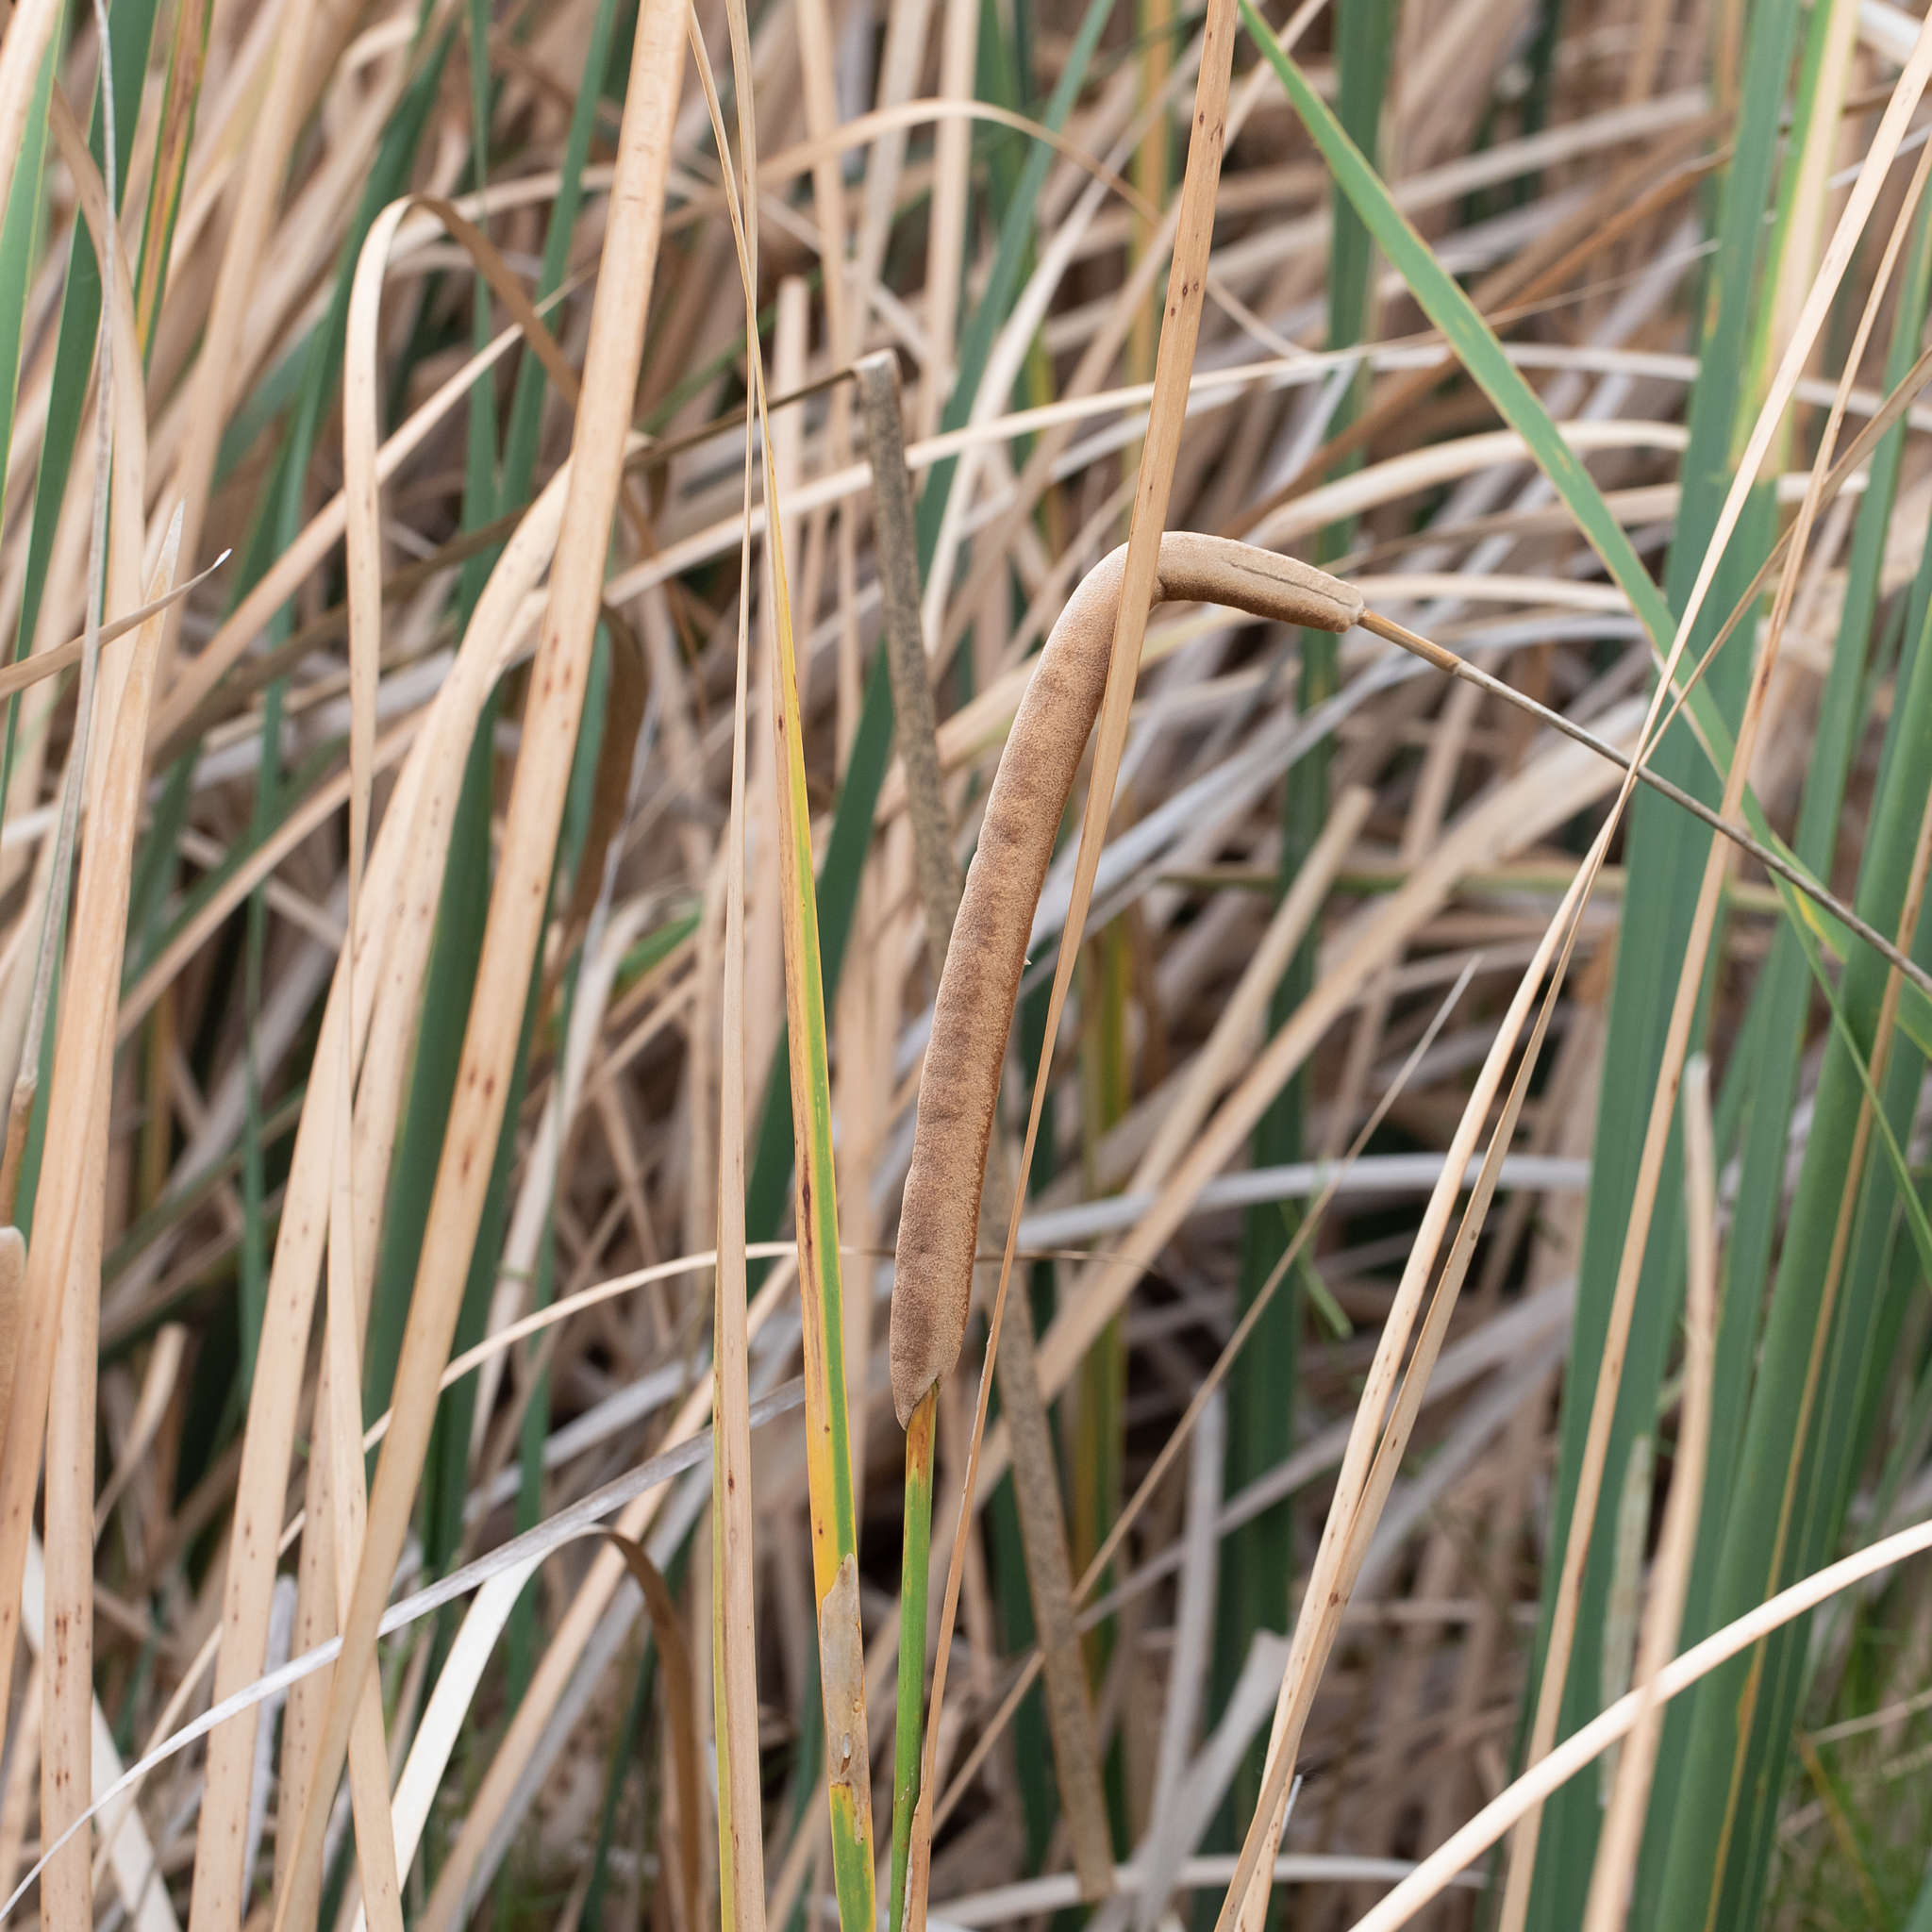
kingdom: Plantae
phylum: Tracheophyta
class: Liliopsida
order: Poales
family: Typhaceae
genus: Typha
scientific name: Typha domingensis
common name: Southern cattail
